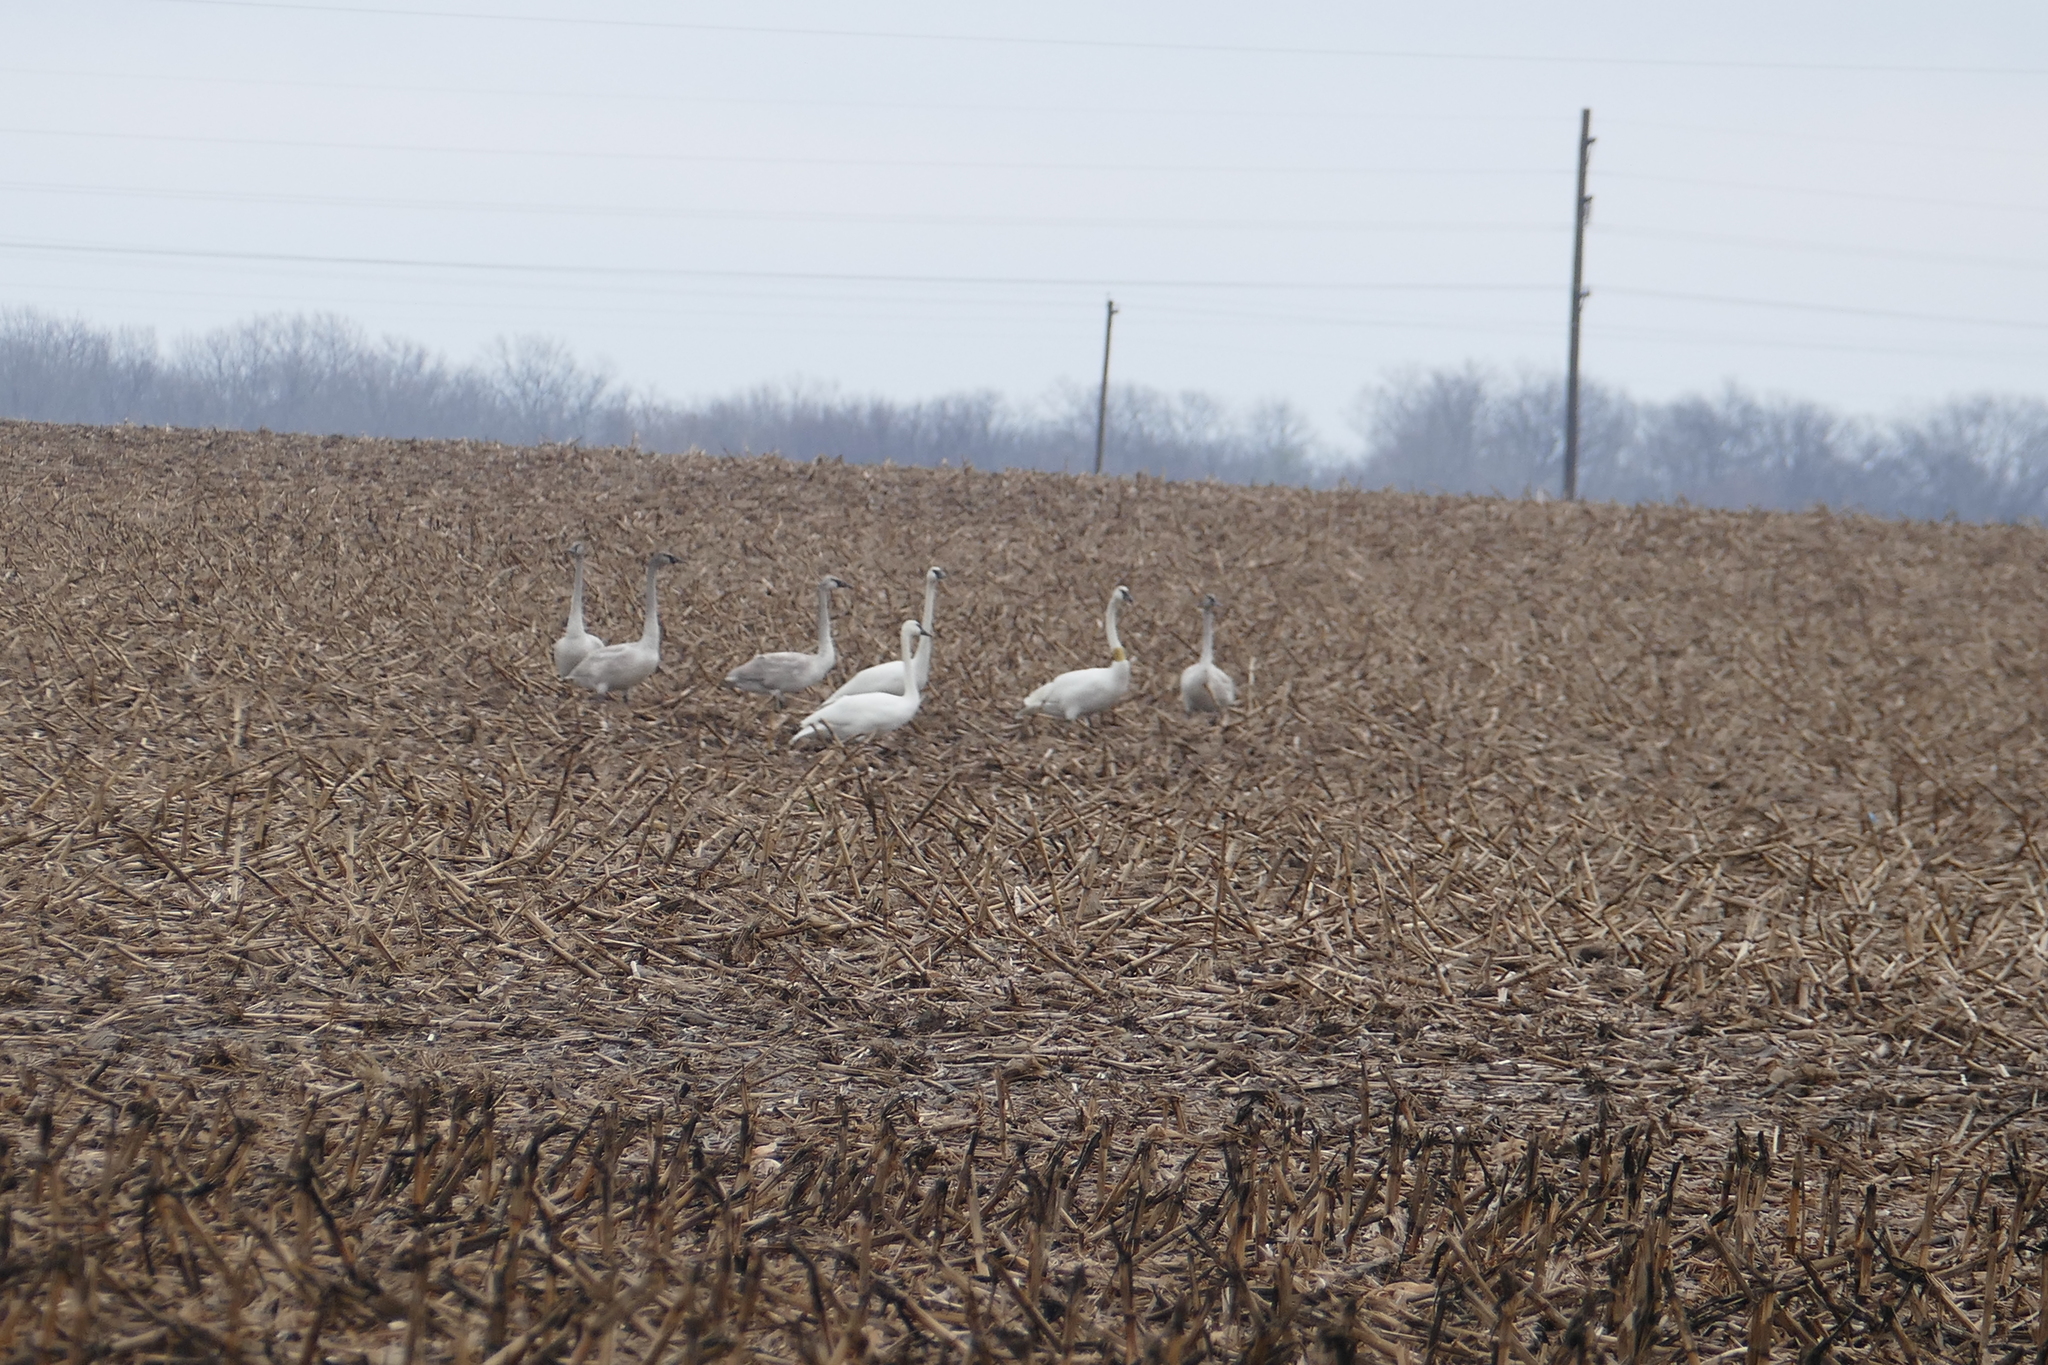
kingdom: Animalia
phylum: Chordata
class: Aves
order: Anseriformes
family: Anatidae
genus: Cygnus
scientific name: Cygnus buccinator
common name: Trumpeter swan
